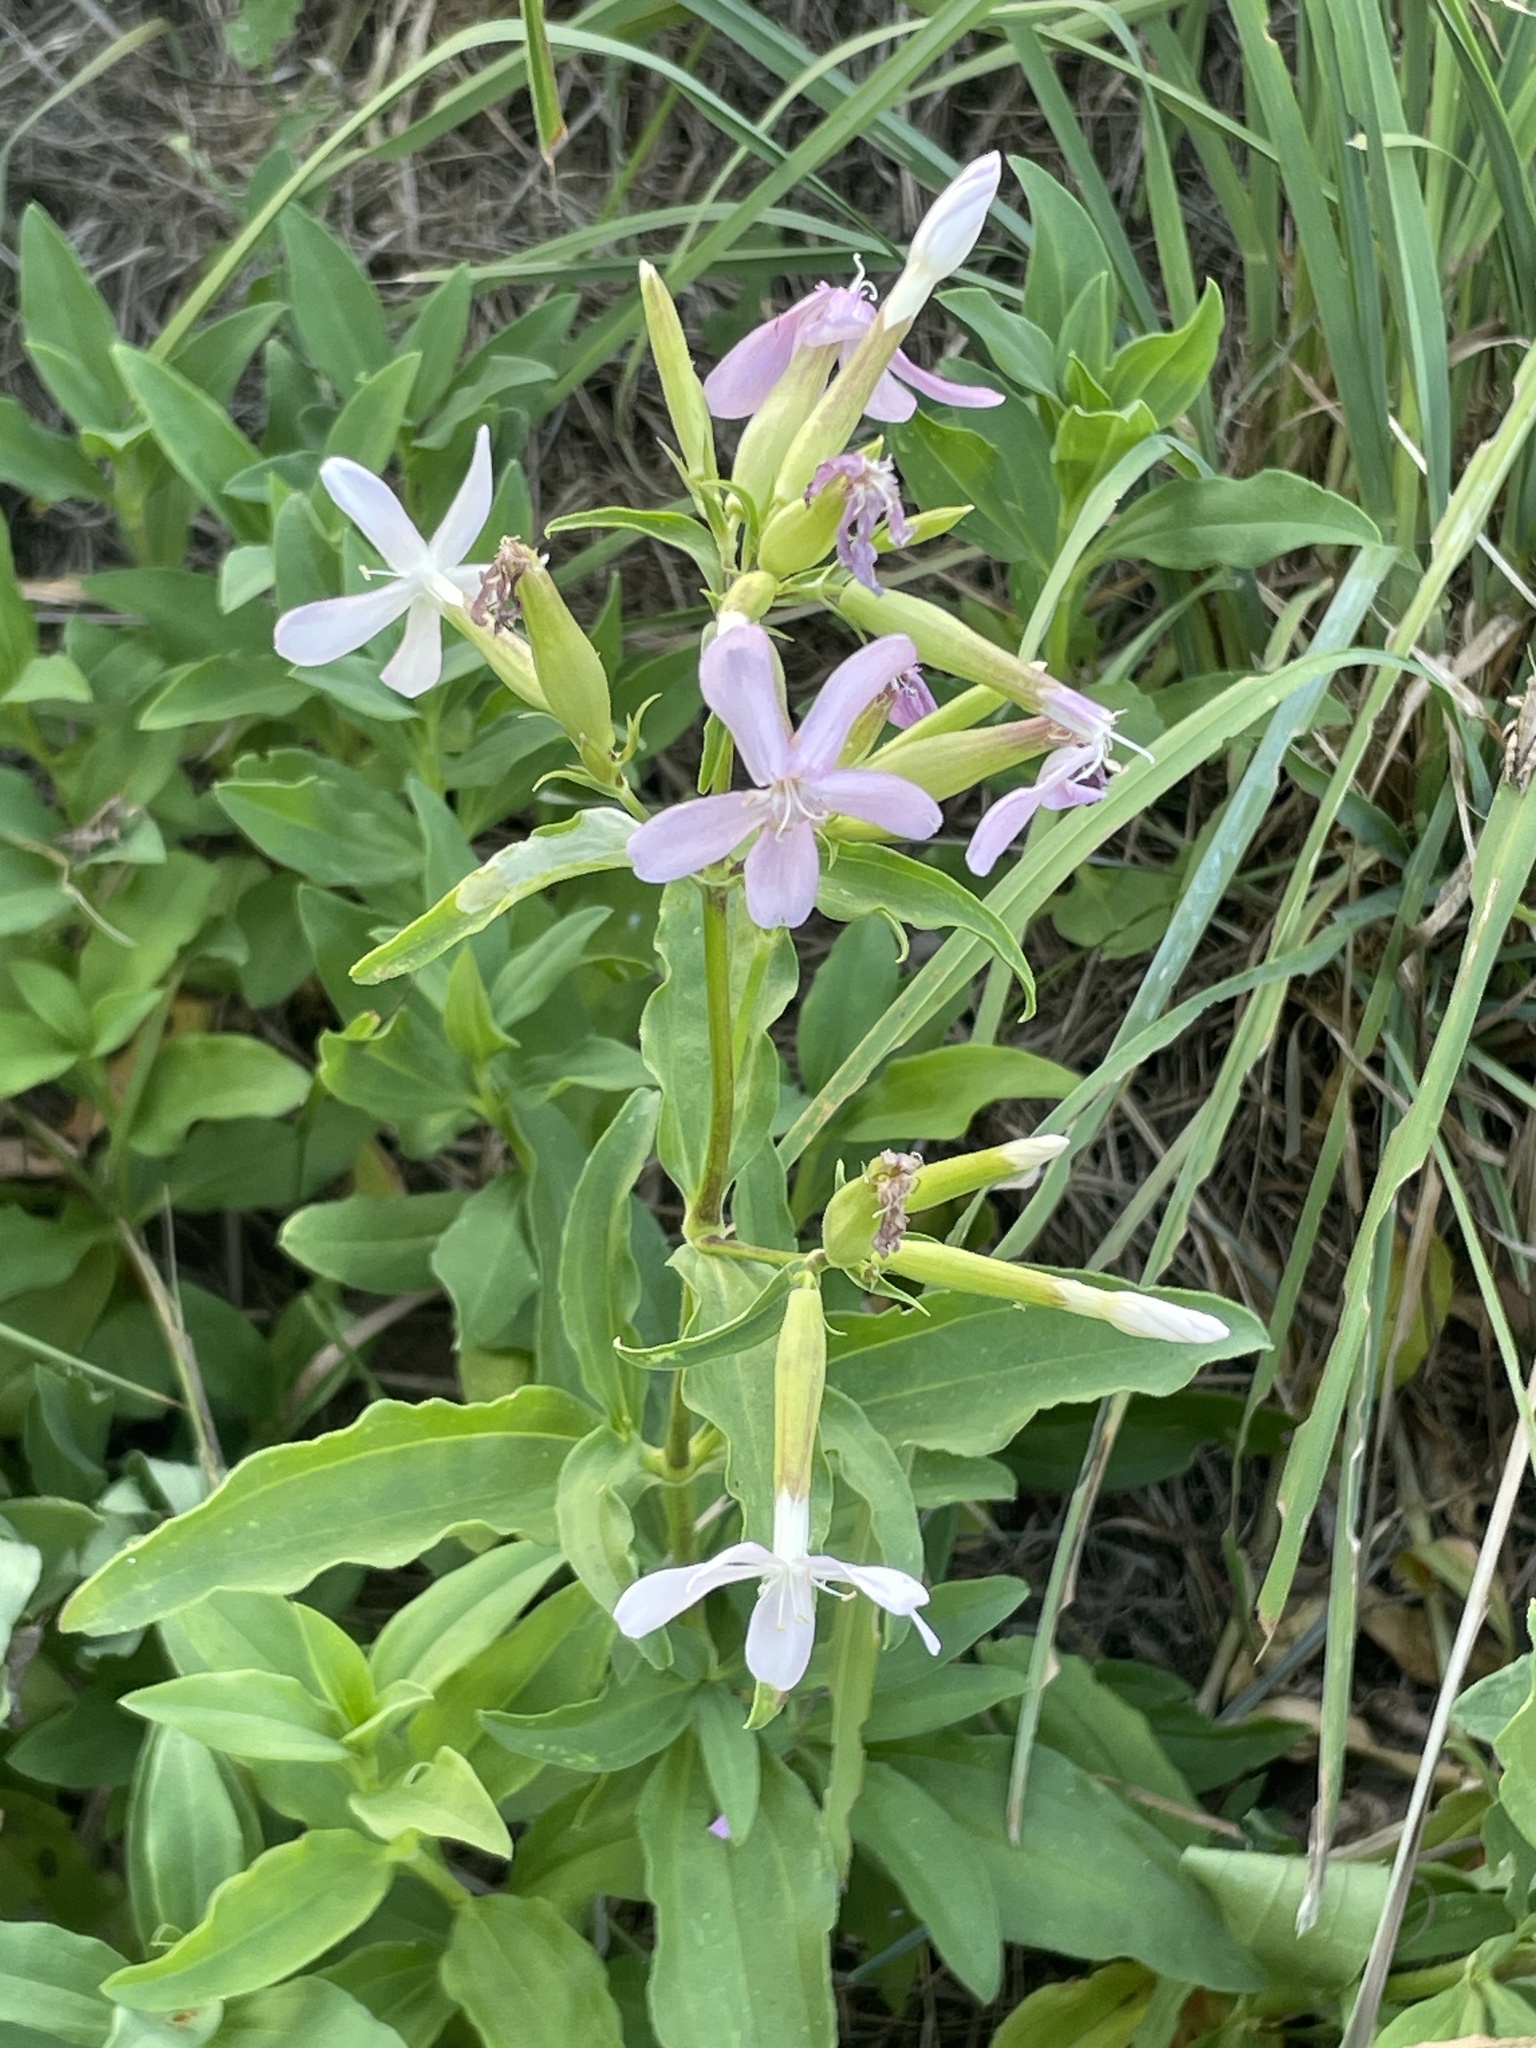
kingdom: Plantae
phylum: Tracheophyta
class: Magnoliopsida
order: Caryophyllales
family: Caryophyllaceae
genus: Saponaria
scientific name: Saponaria officinalis
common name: Soapwort
